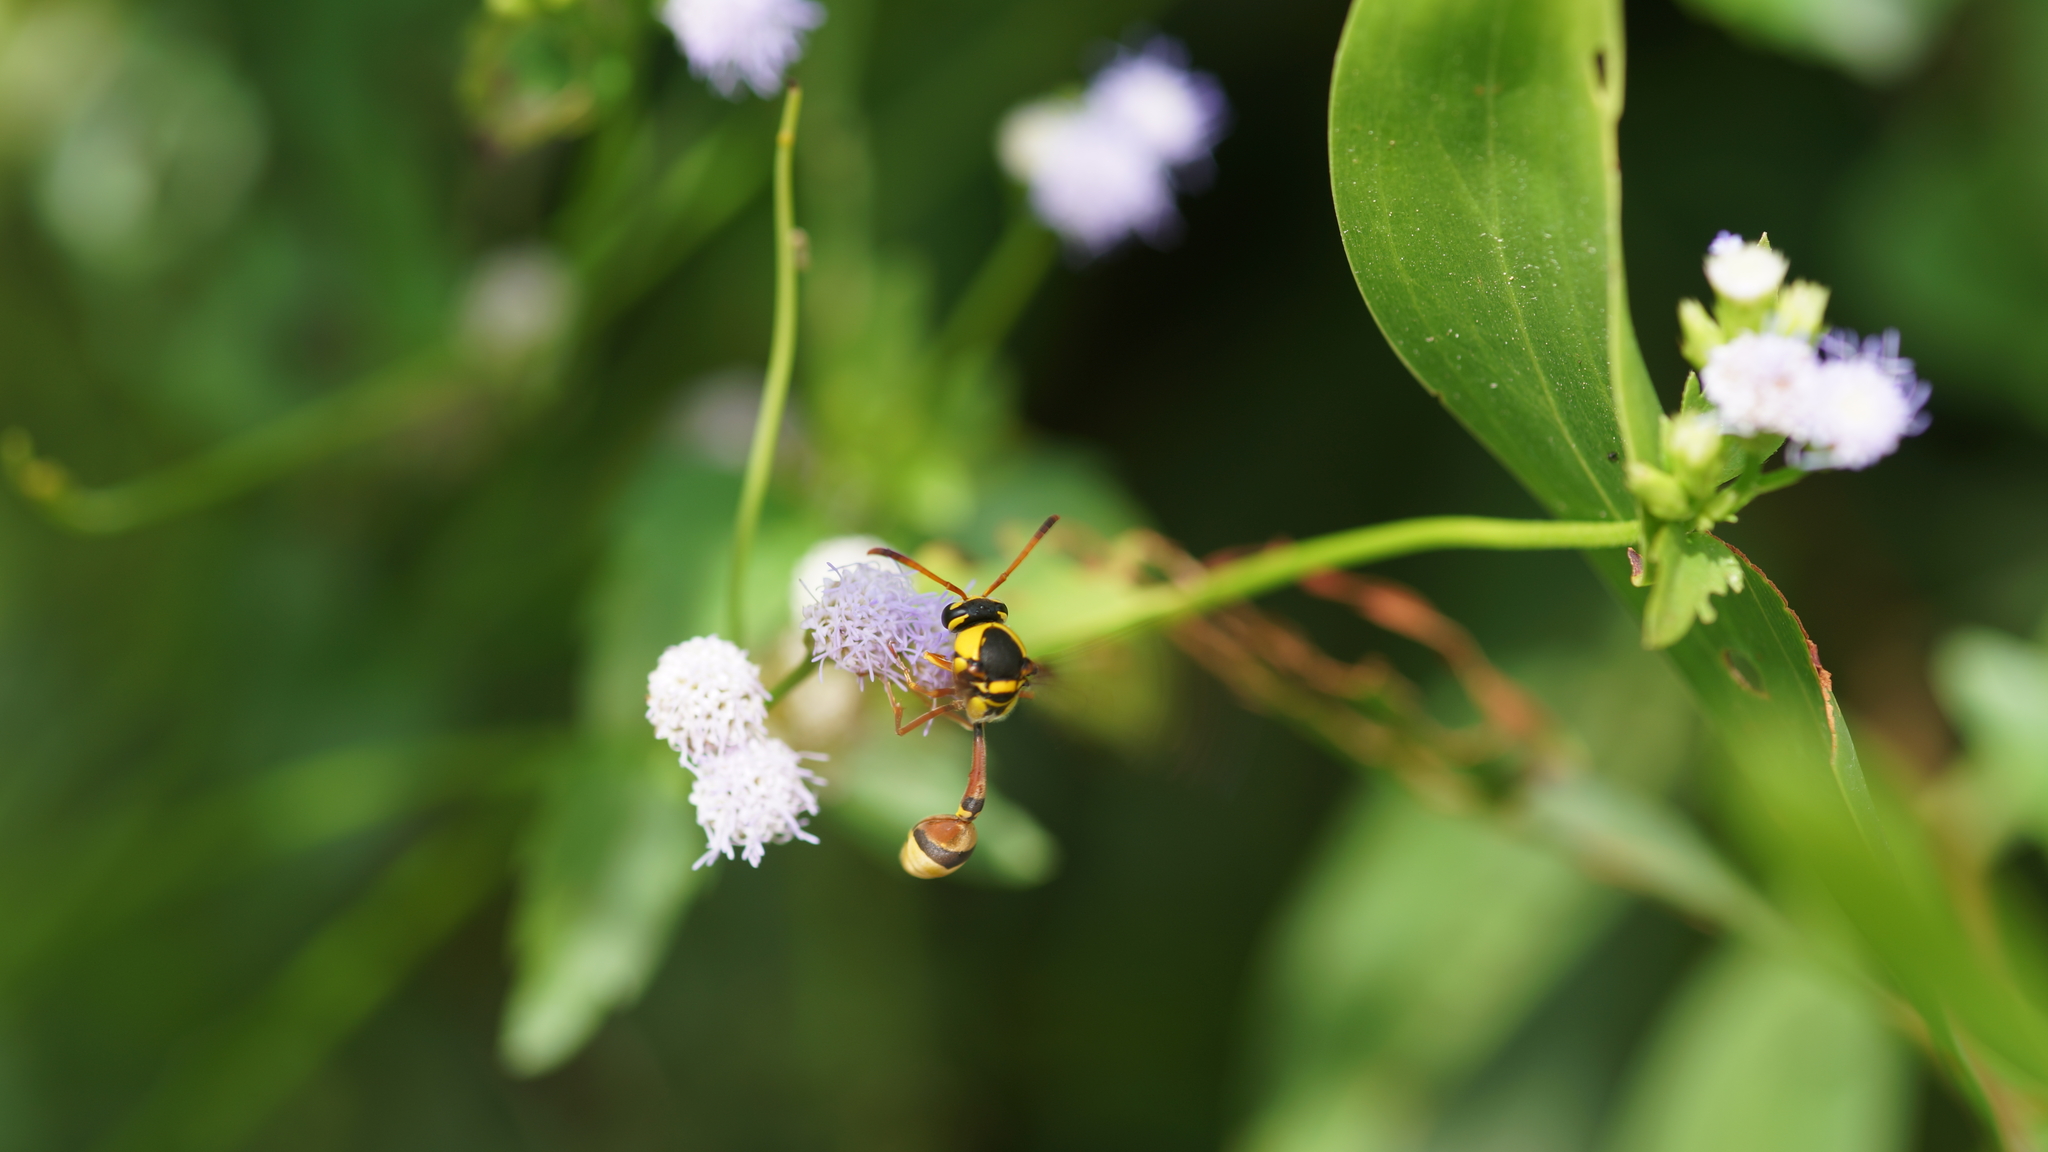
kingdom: Animalia
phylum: Arthropoda
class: Insecta
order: Hymenoptera
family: Eumenidae
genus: Delta
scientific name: Delta campaniforme
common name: Yellow and black potter wasp
